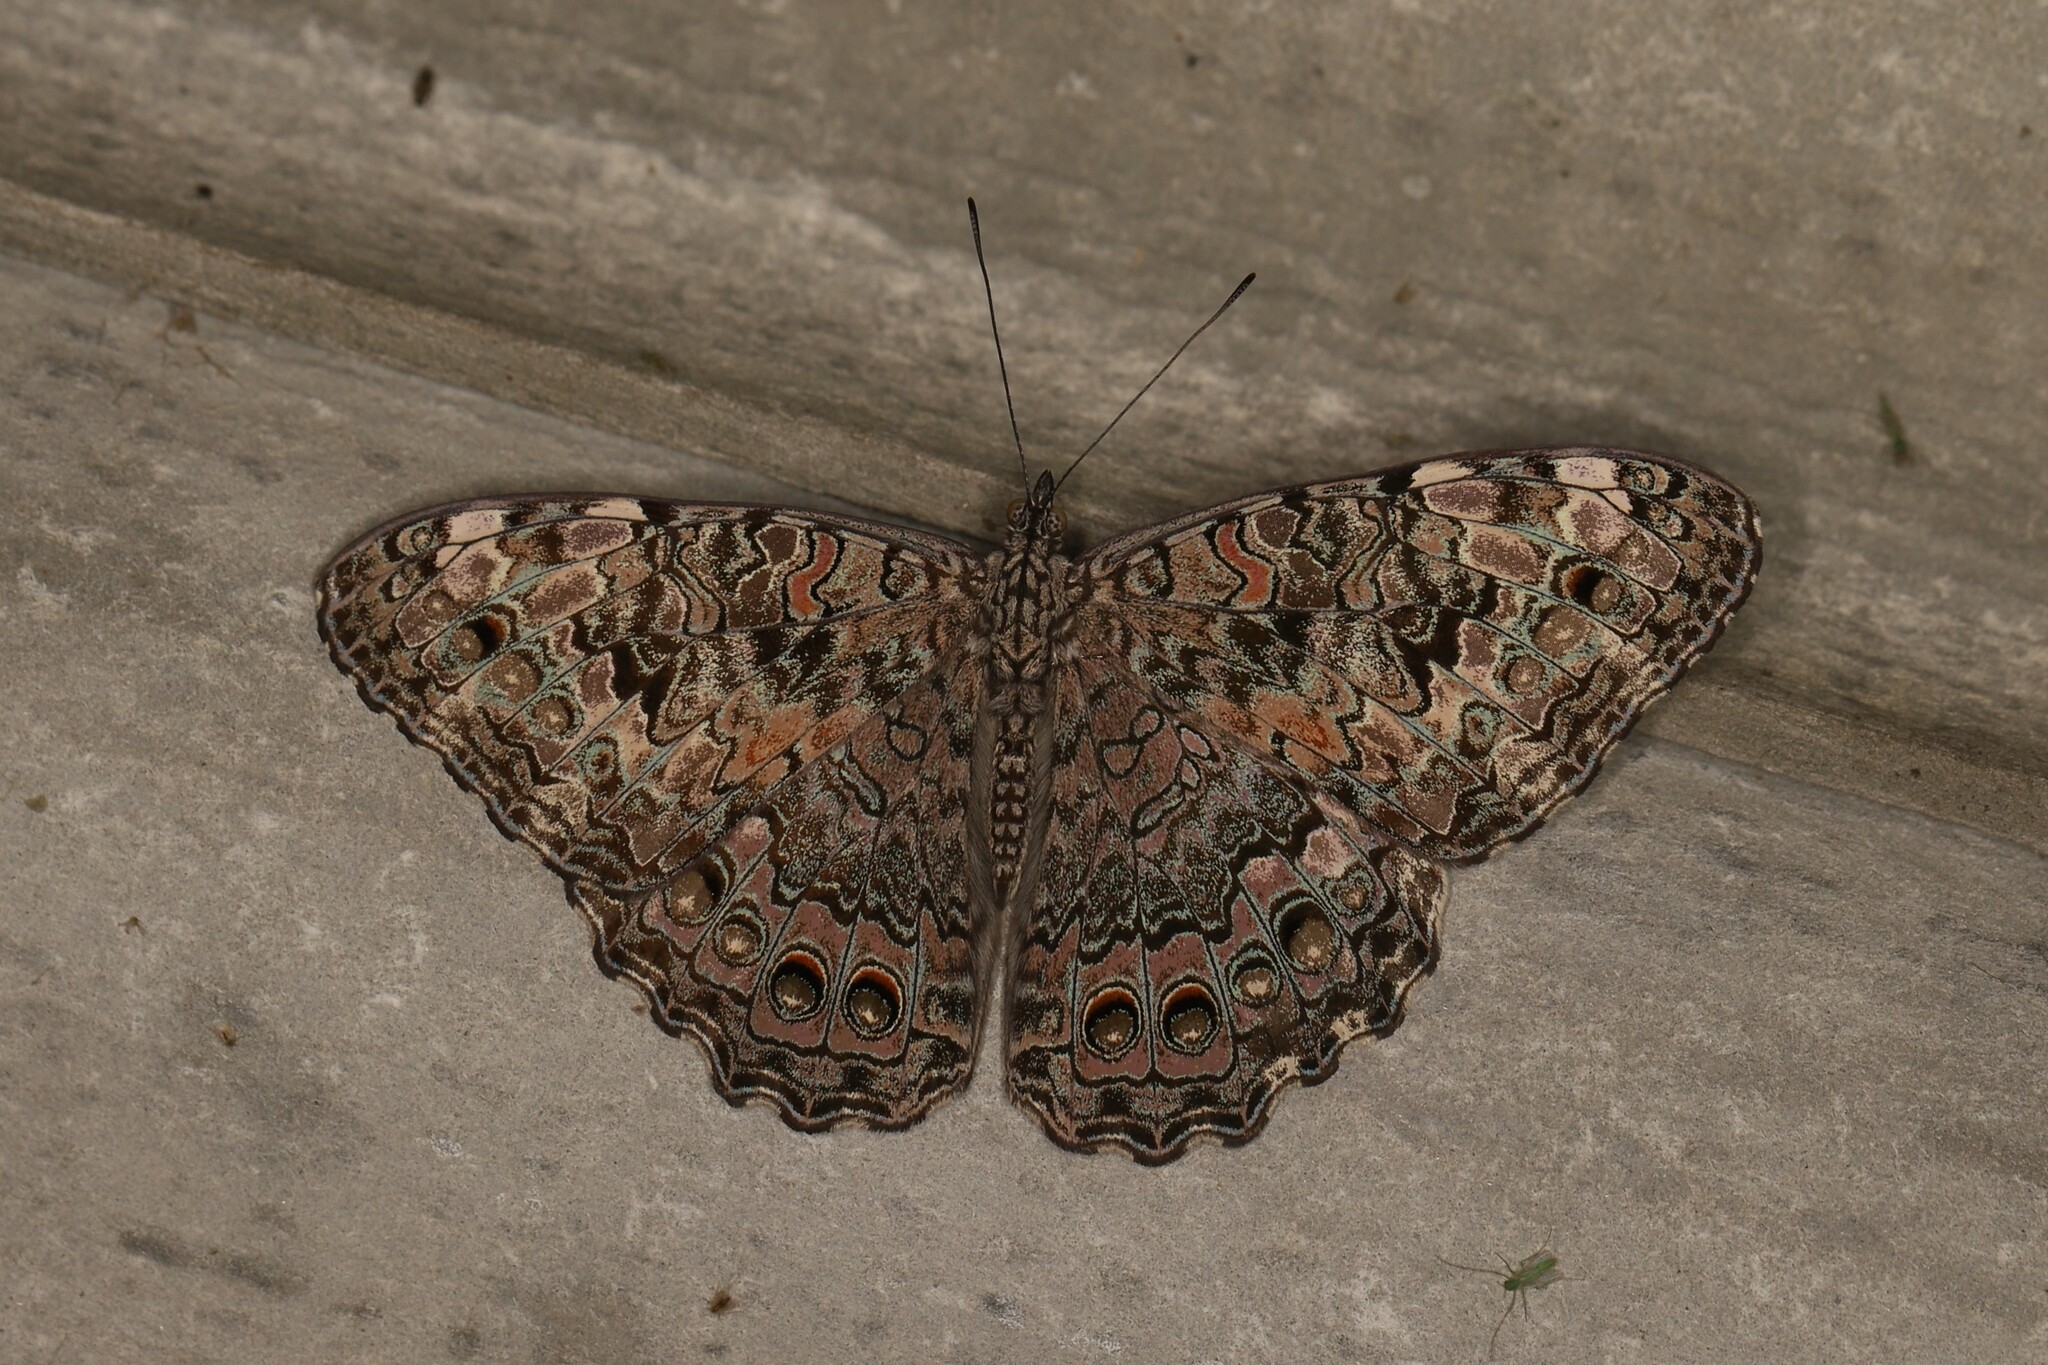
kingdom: Animalia
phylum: Arthropoda
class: Insecta
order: Lepidoptera
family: Nymphalidae
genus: Hamadryas
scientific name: Hamadryas februa
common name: Gray cracker
